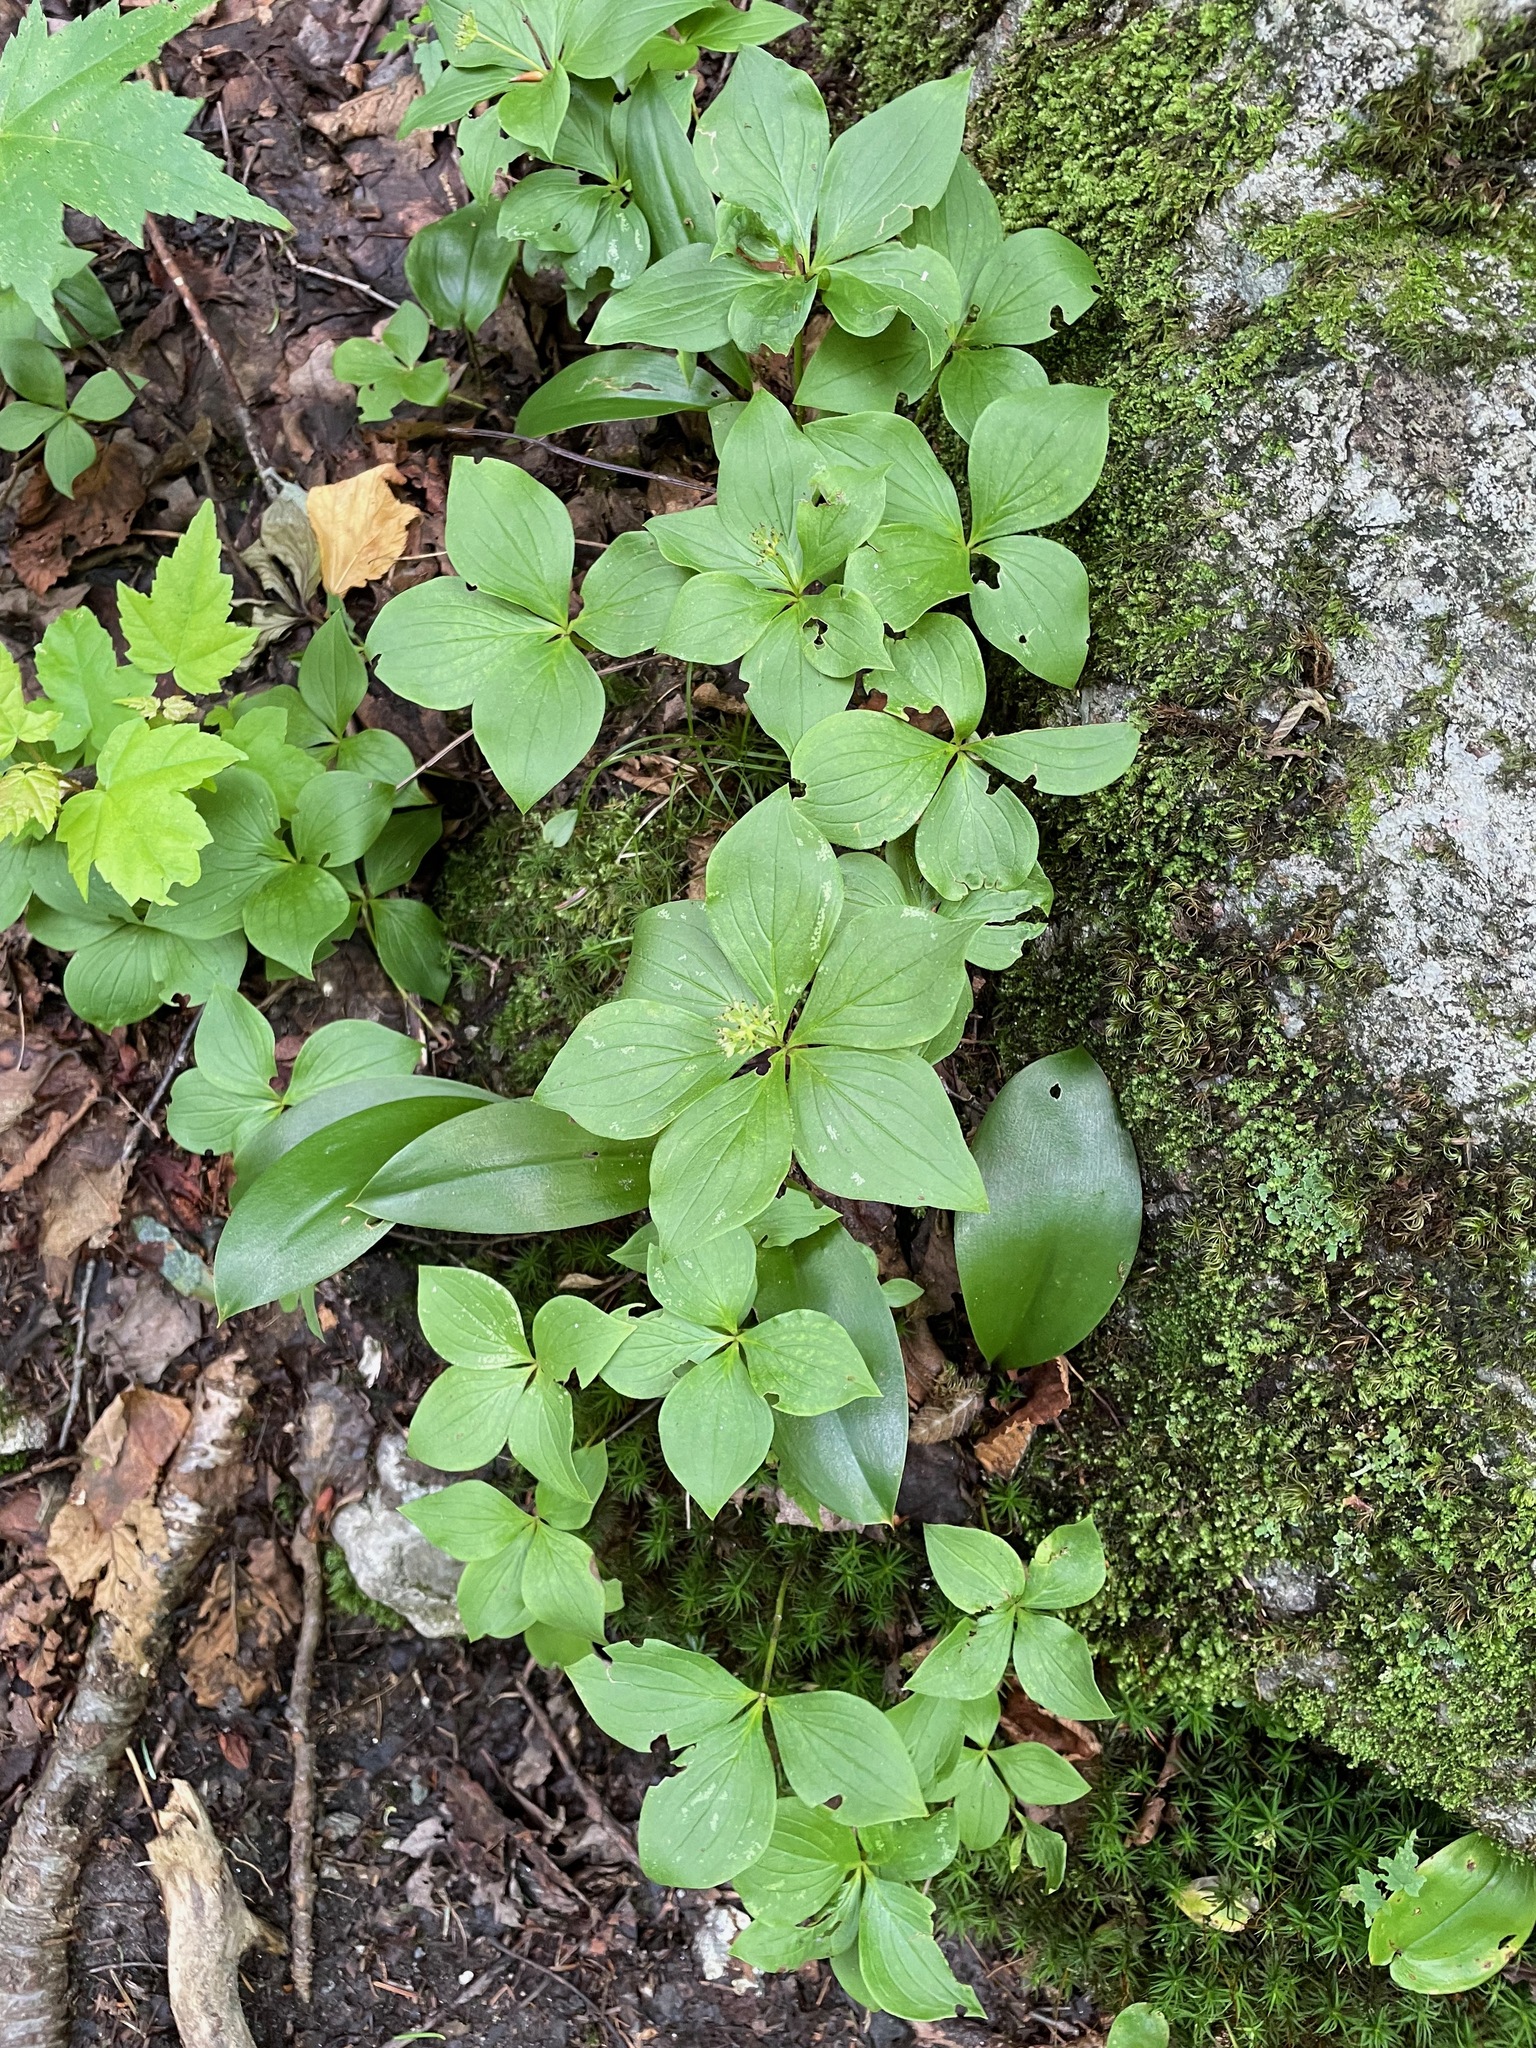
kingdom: Plantae
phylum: Tracheophyta
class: Magnoliopsida
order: Cornales
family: Cornaceae
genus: Cornus
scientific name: Cornus canadensis
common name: Creeping dogwood
